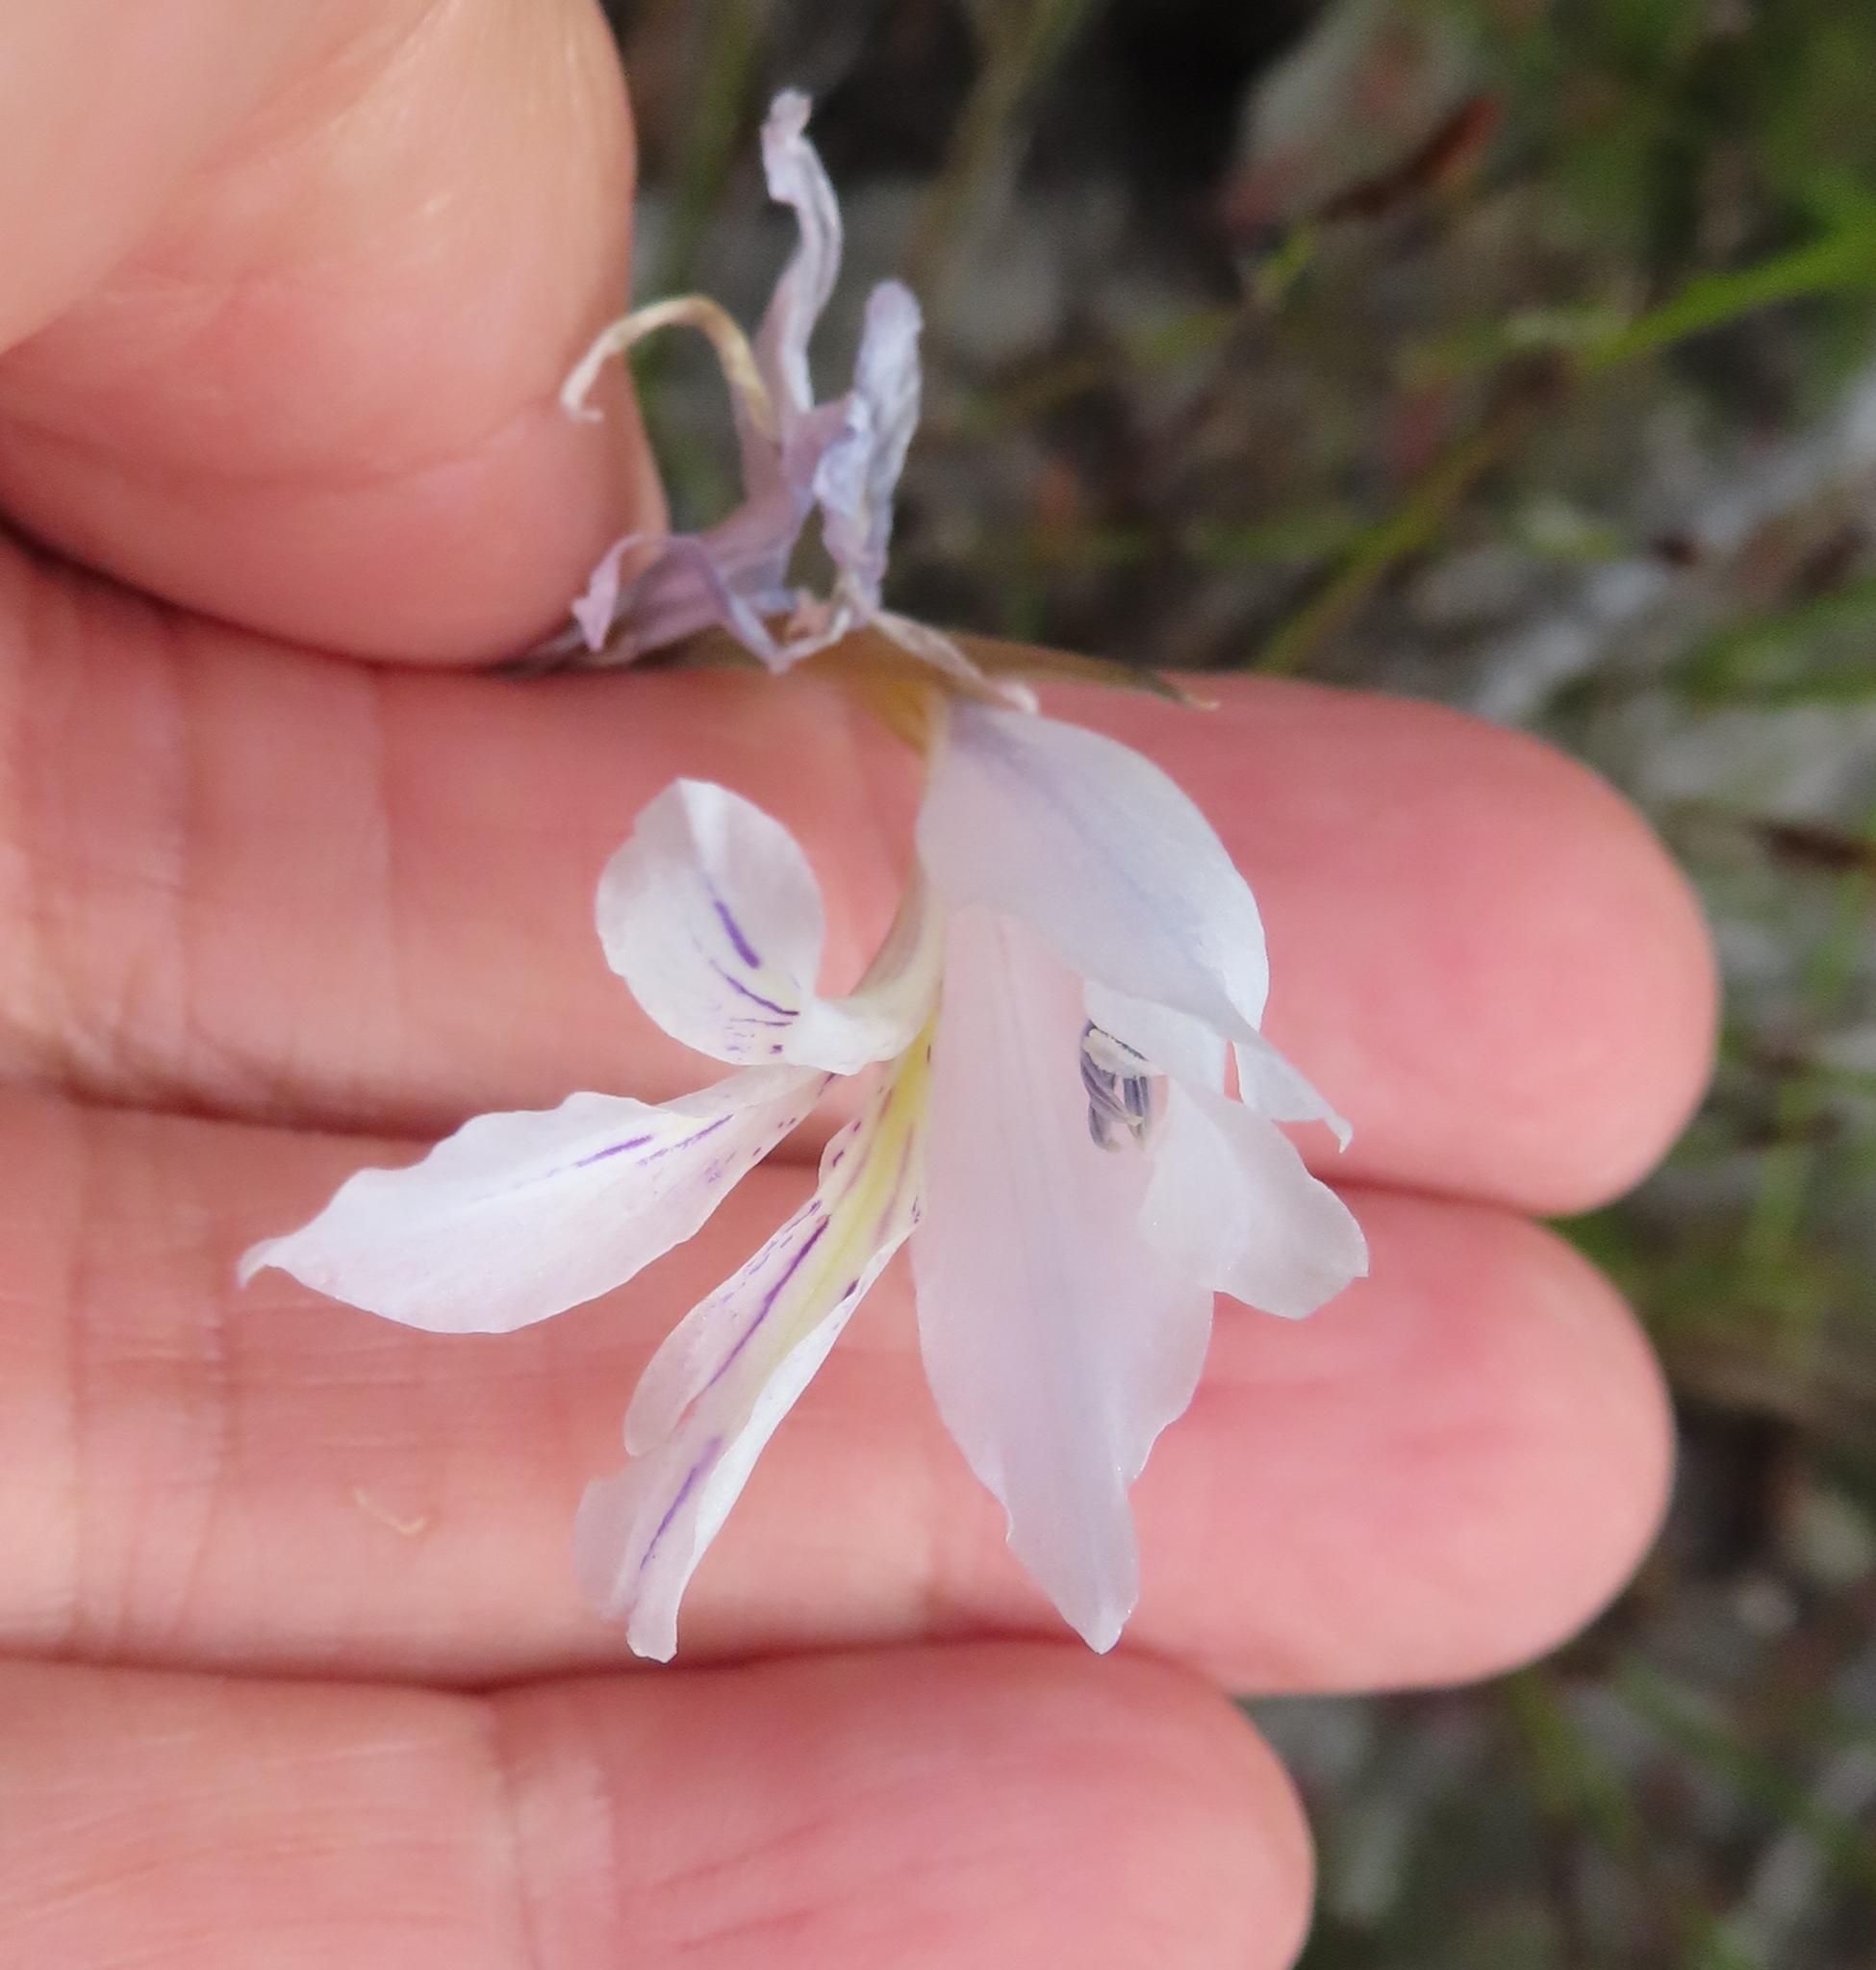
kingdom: Plantae
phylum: Tracheophyta
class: Liliopsida
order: Asparagales
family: Iridaceae
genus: Gladiolus
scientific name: Gladiolus vaginatus
